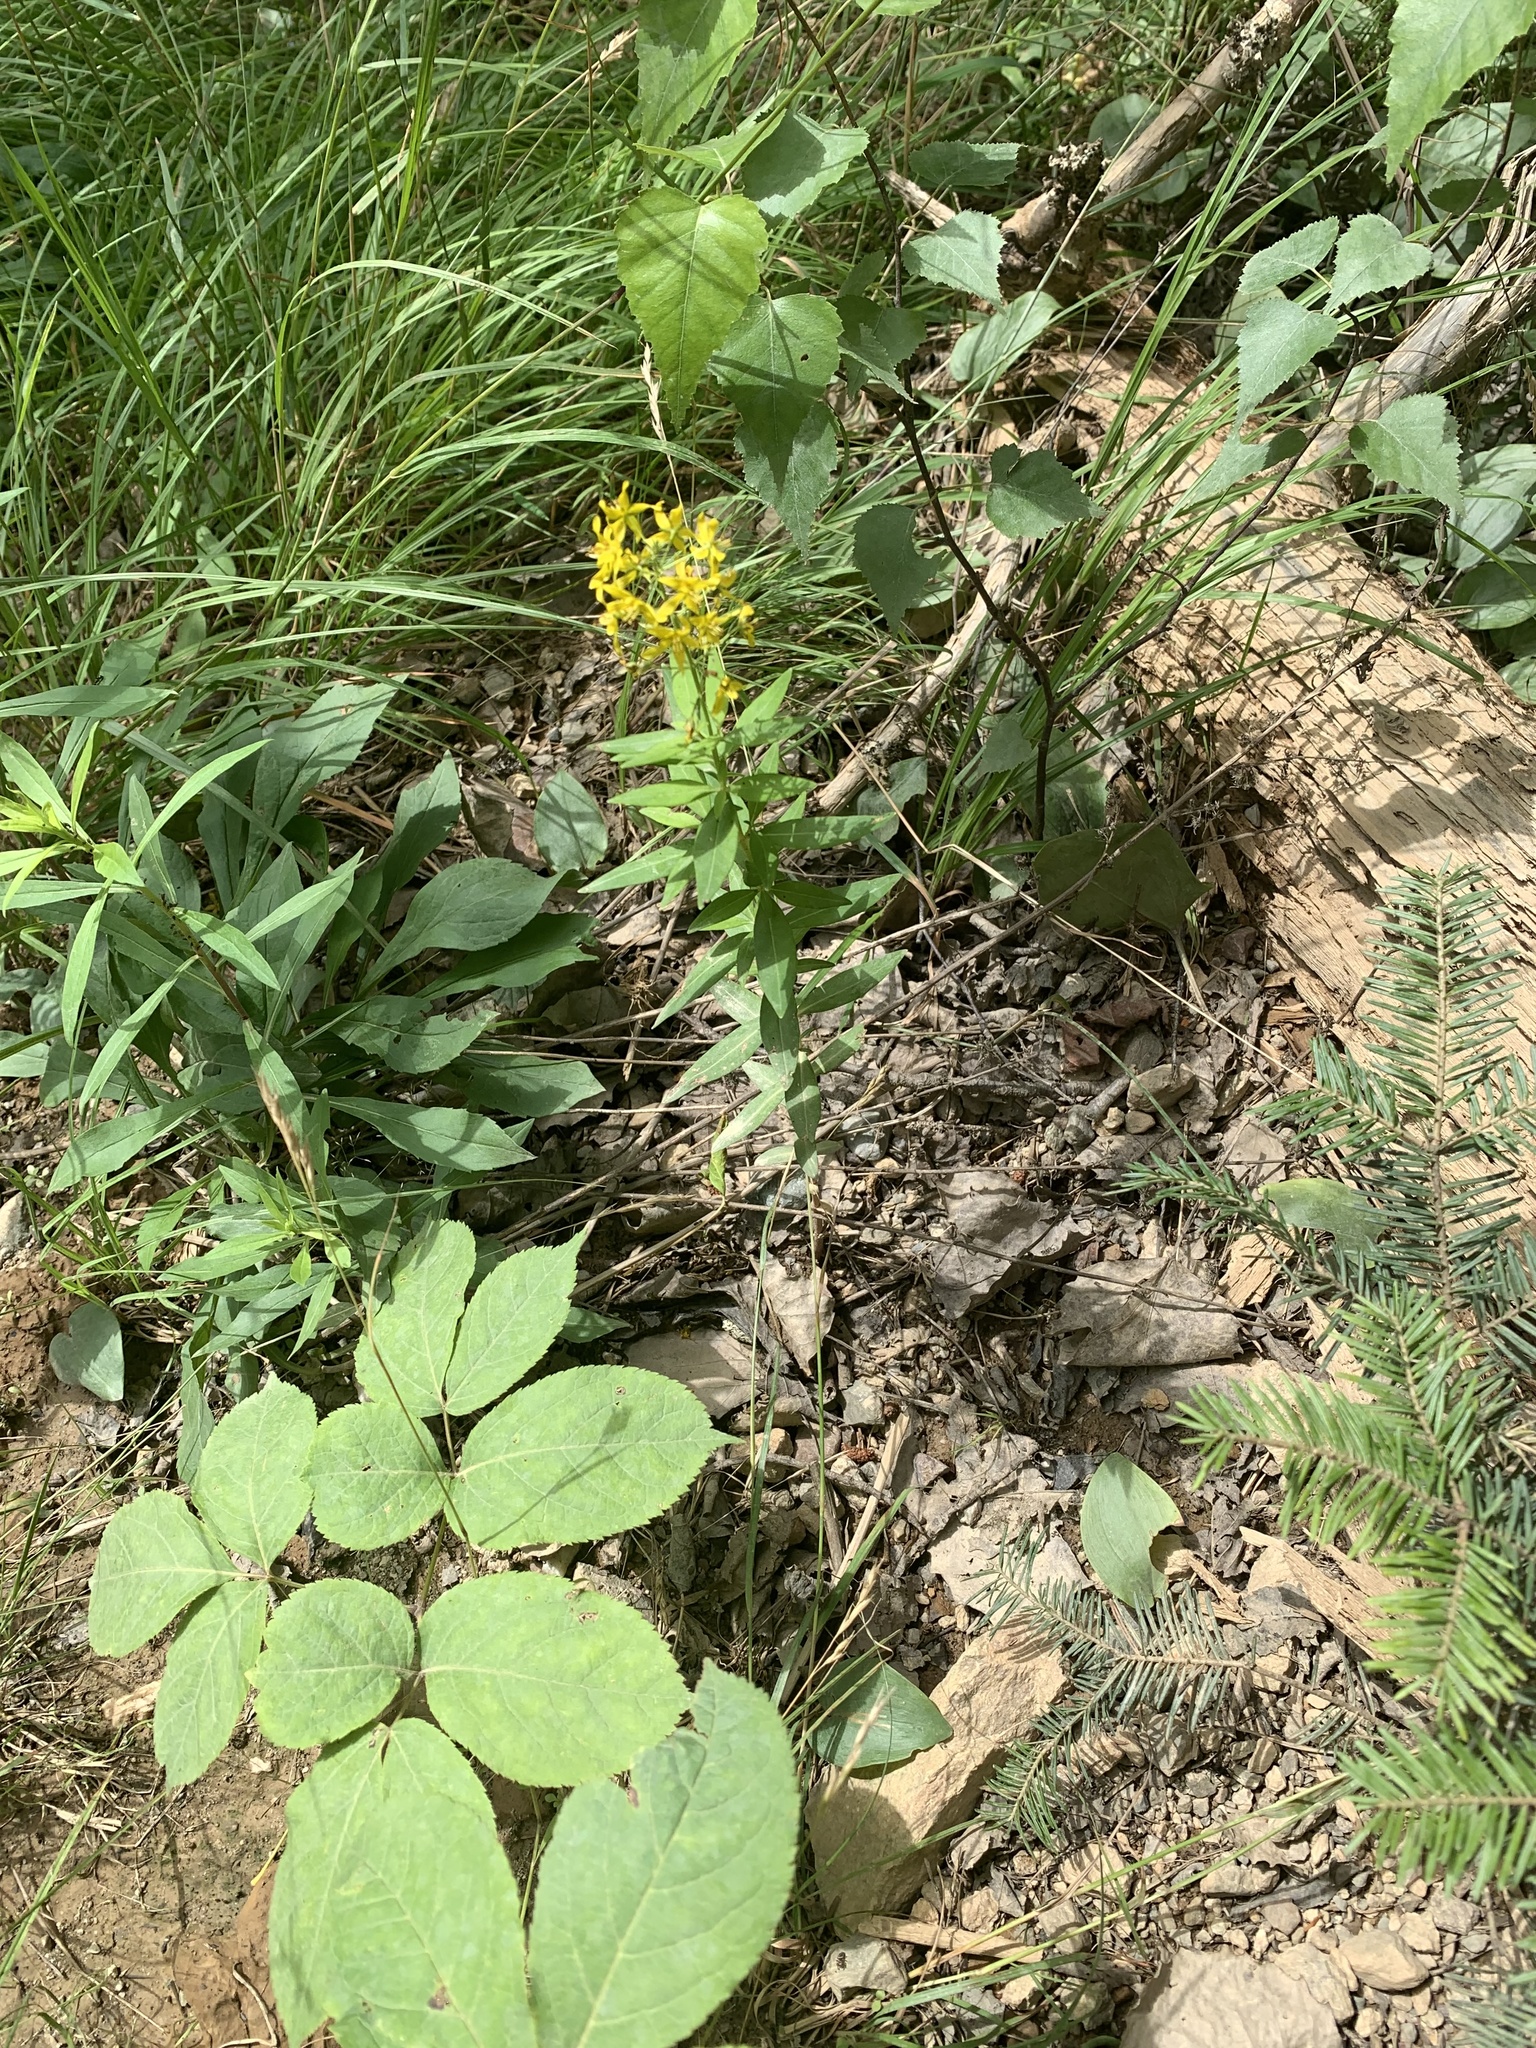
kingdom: Plantae
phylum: Tracheophyta
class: Magnoliopsida
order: Ericales
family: Primulaceae
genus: Lysimachia
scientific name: Lysimachia terrestris
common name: Lake loosestrife
